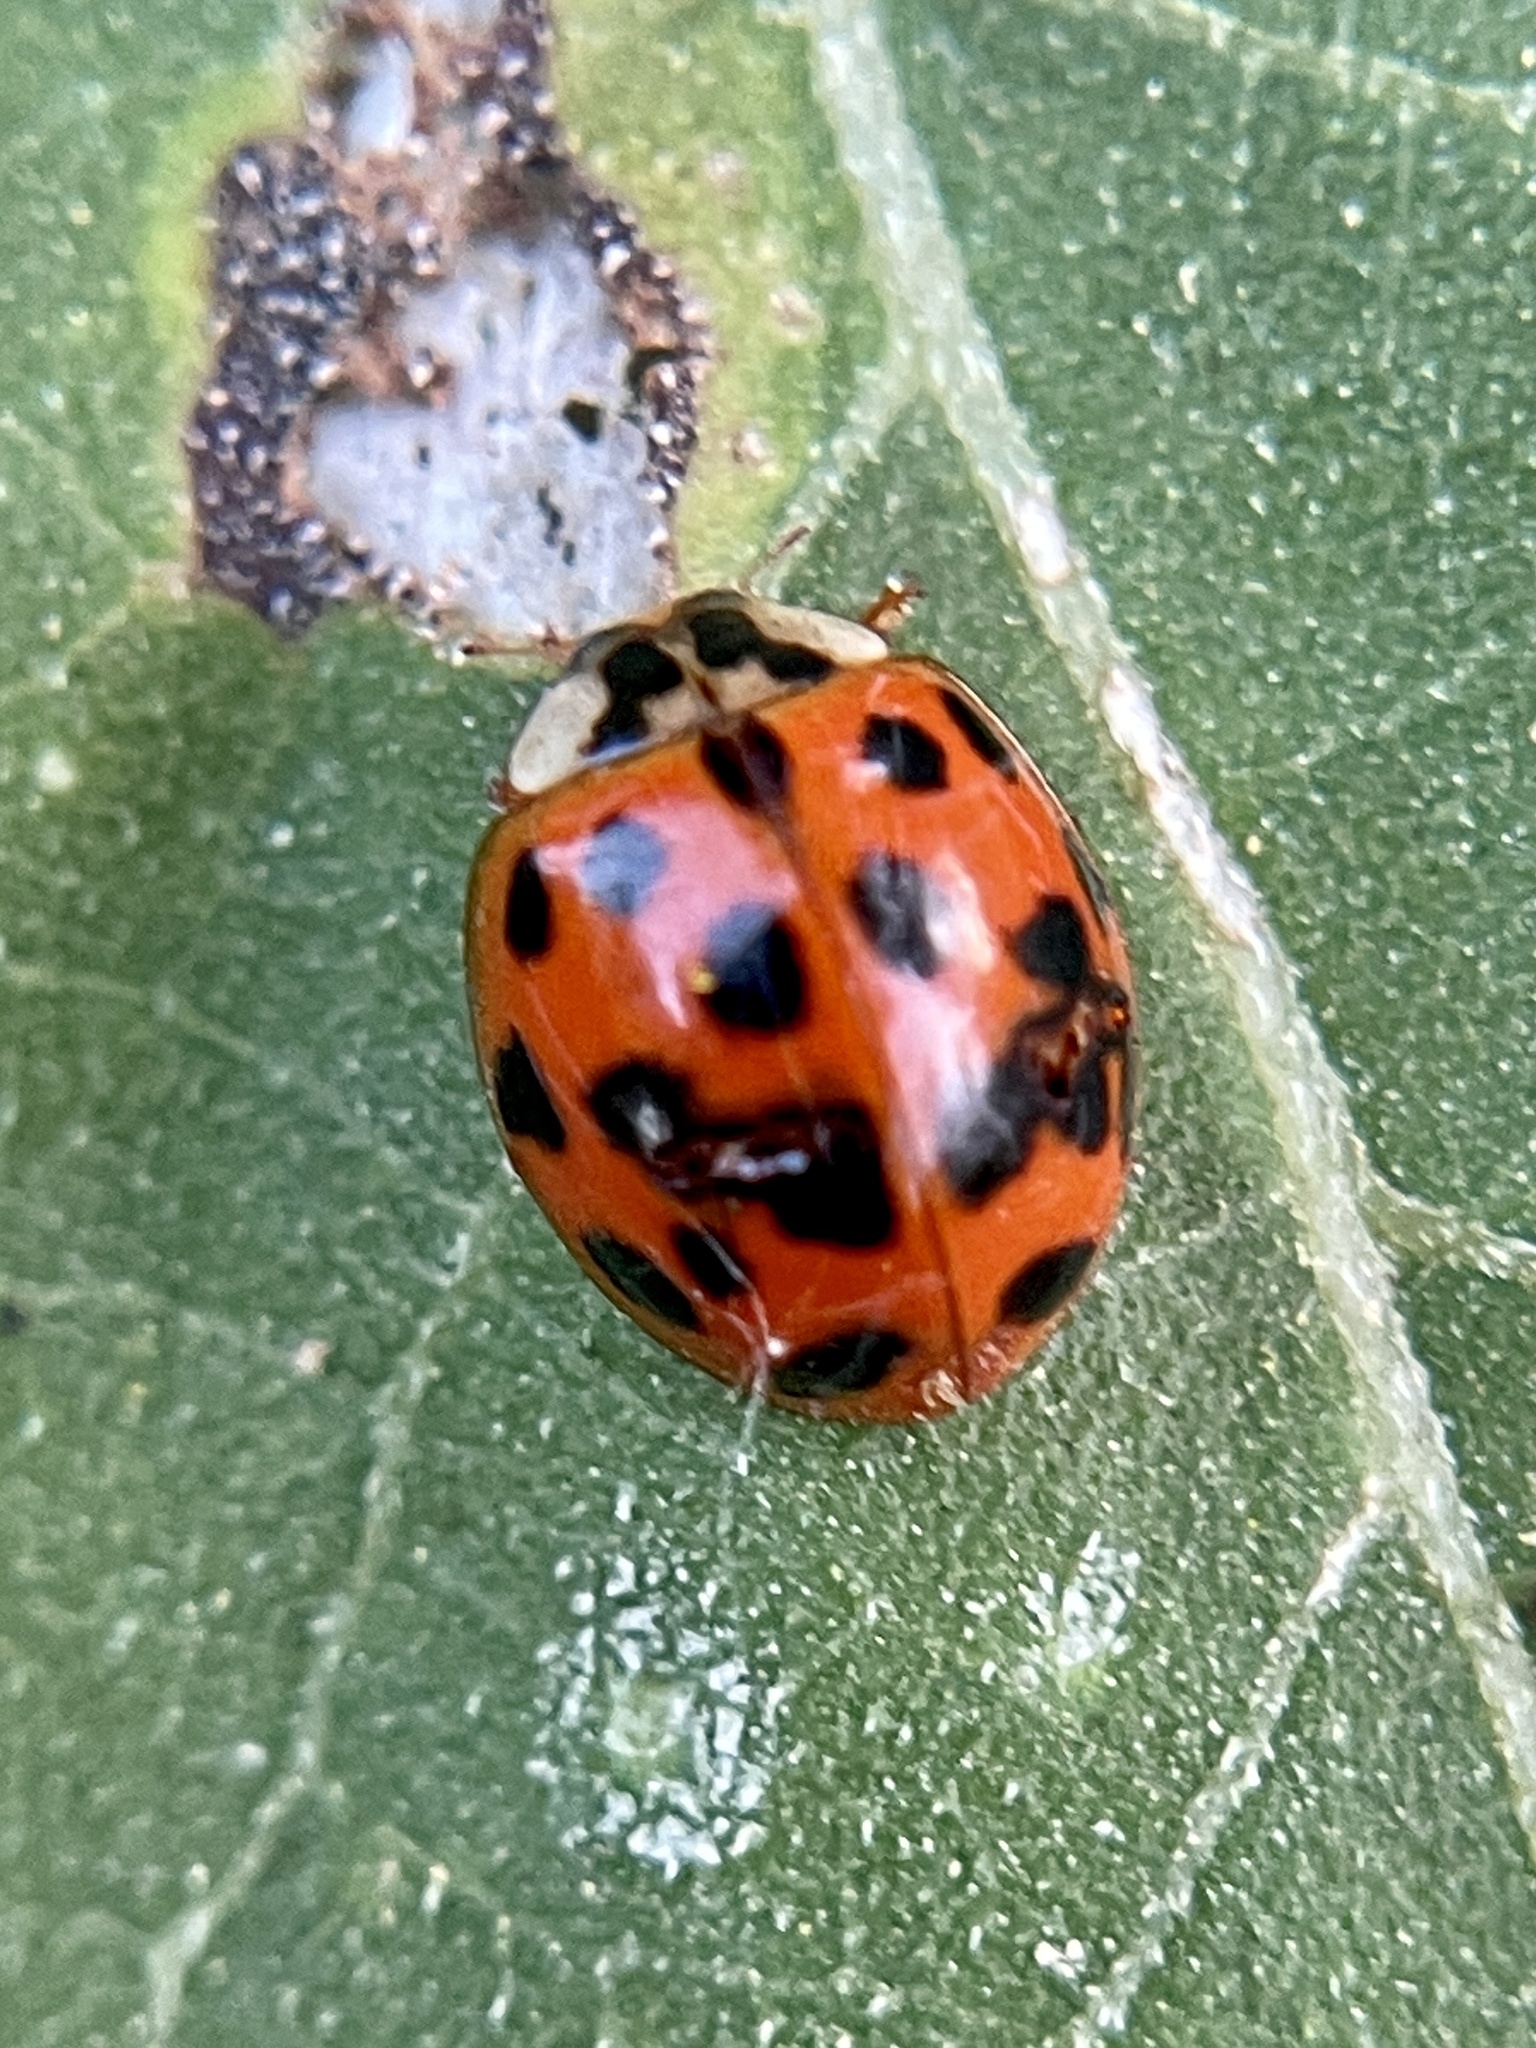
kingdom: Animalia
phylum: Arthropoda
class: Insecta
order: Coleoptera
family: Coccinellidae
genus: Harmonia
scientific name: Harmonia axyridis
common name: Harlequin ladybird
